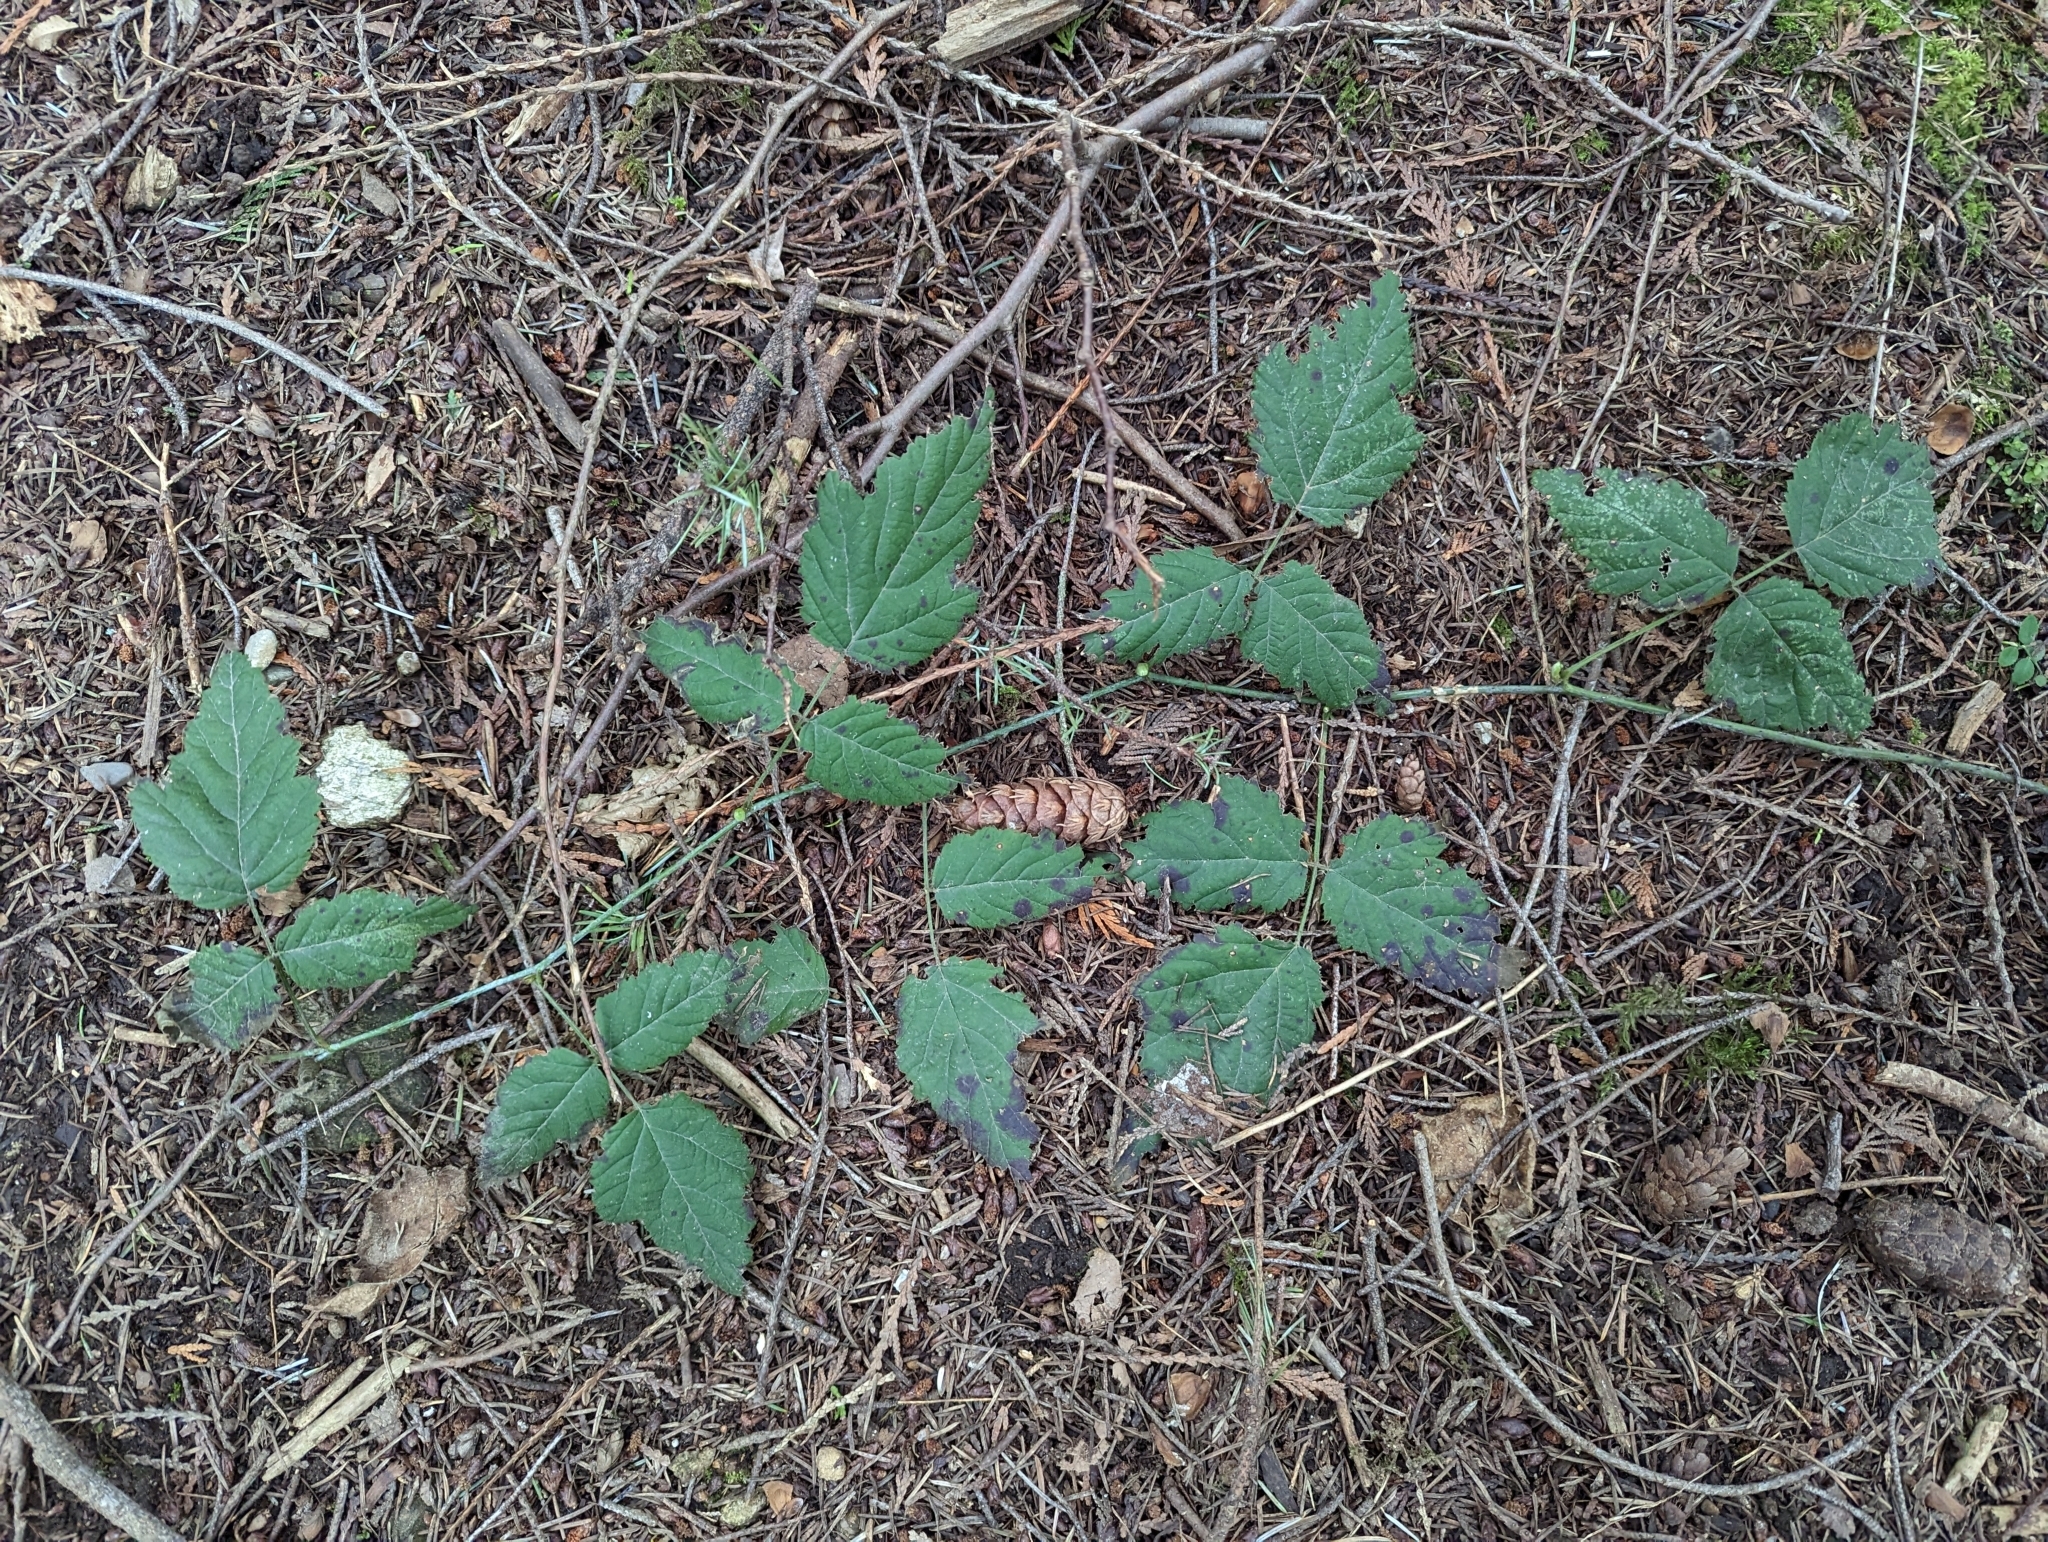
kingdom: Plantae
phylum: Tracheophyta
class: Magnoliopsida
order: Rosales
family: Rosaceae
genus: Rubus
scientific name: Rubus ursinus
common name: Pacific blackberry
